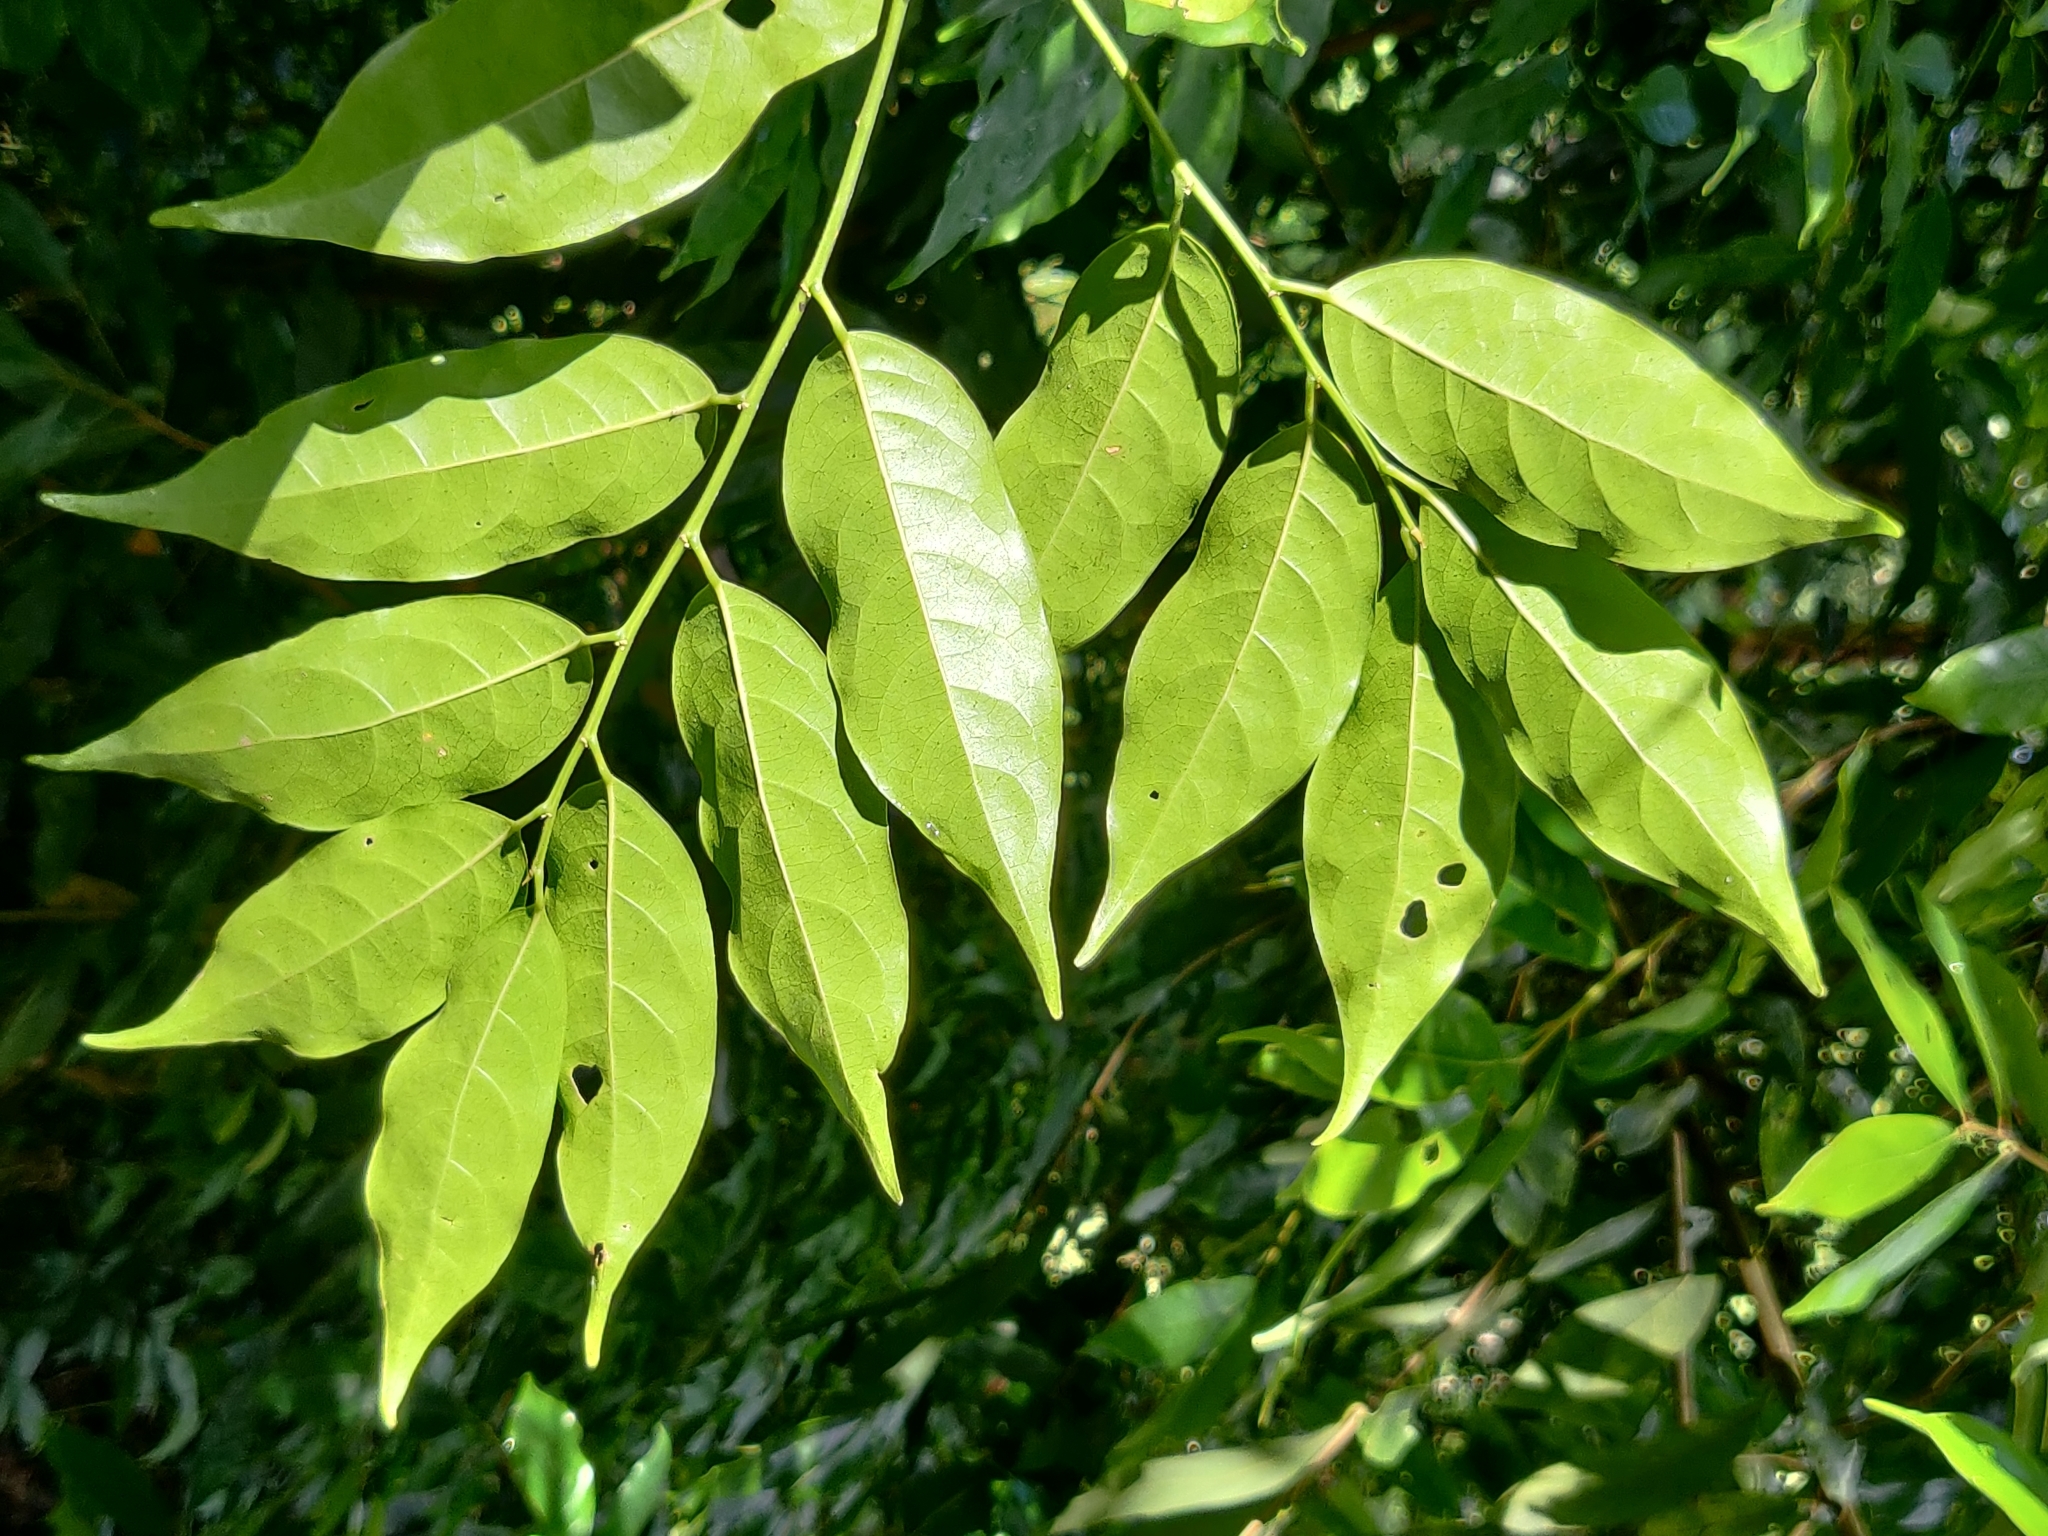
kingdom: Plantae
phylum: Tracheophyta
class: Magnoliopsida
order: Malpighiales
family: Phyllanthaceae
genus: Aporosa
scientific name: Aporosa indoacuminata
